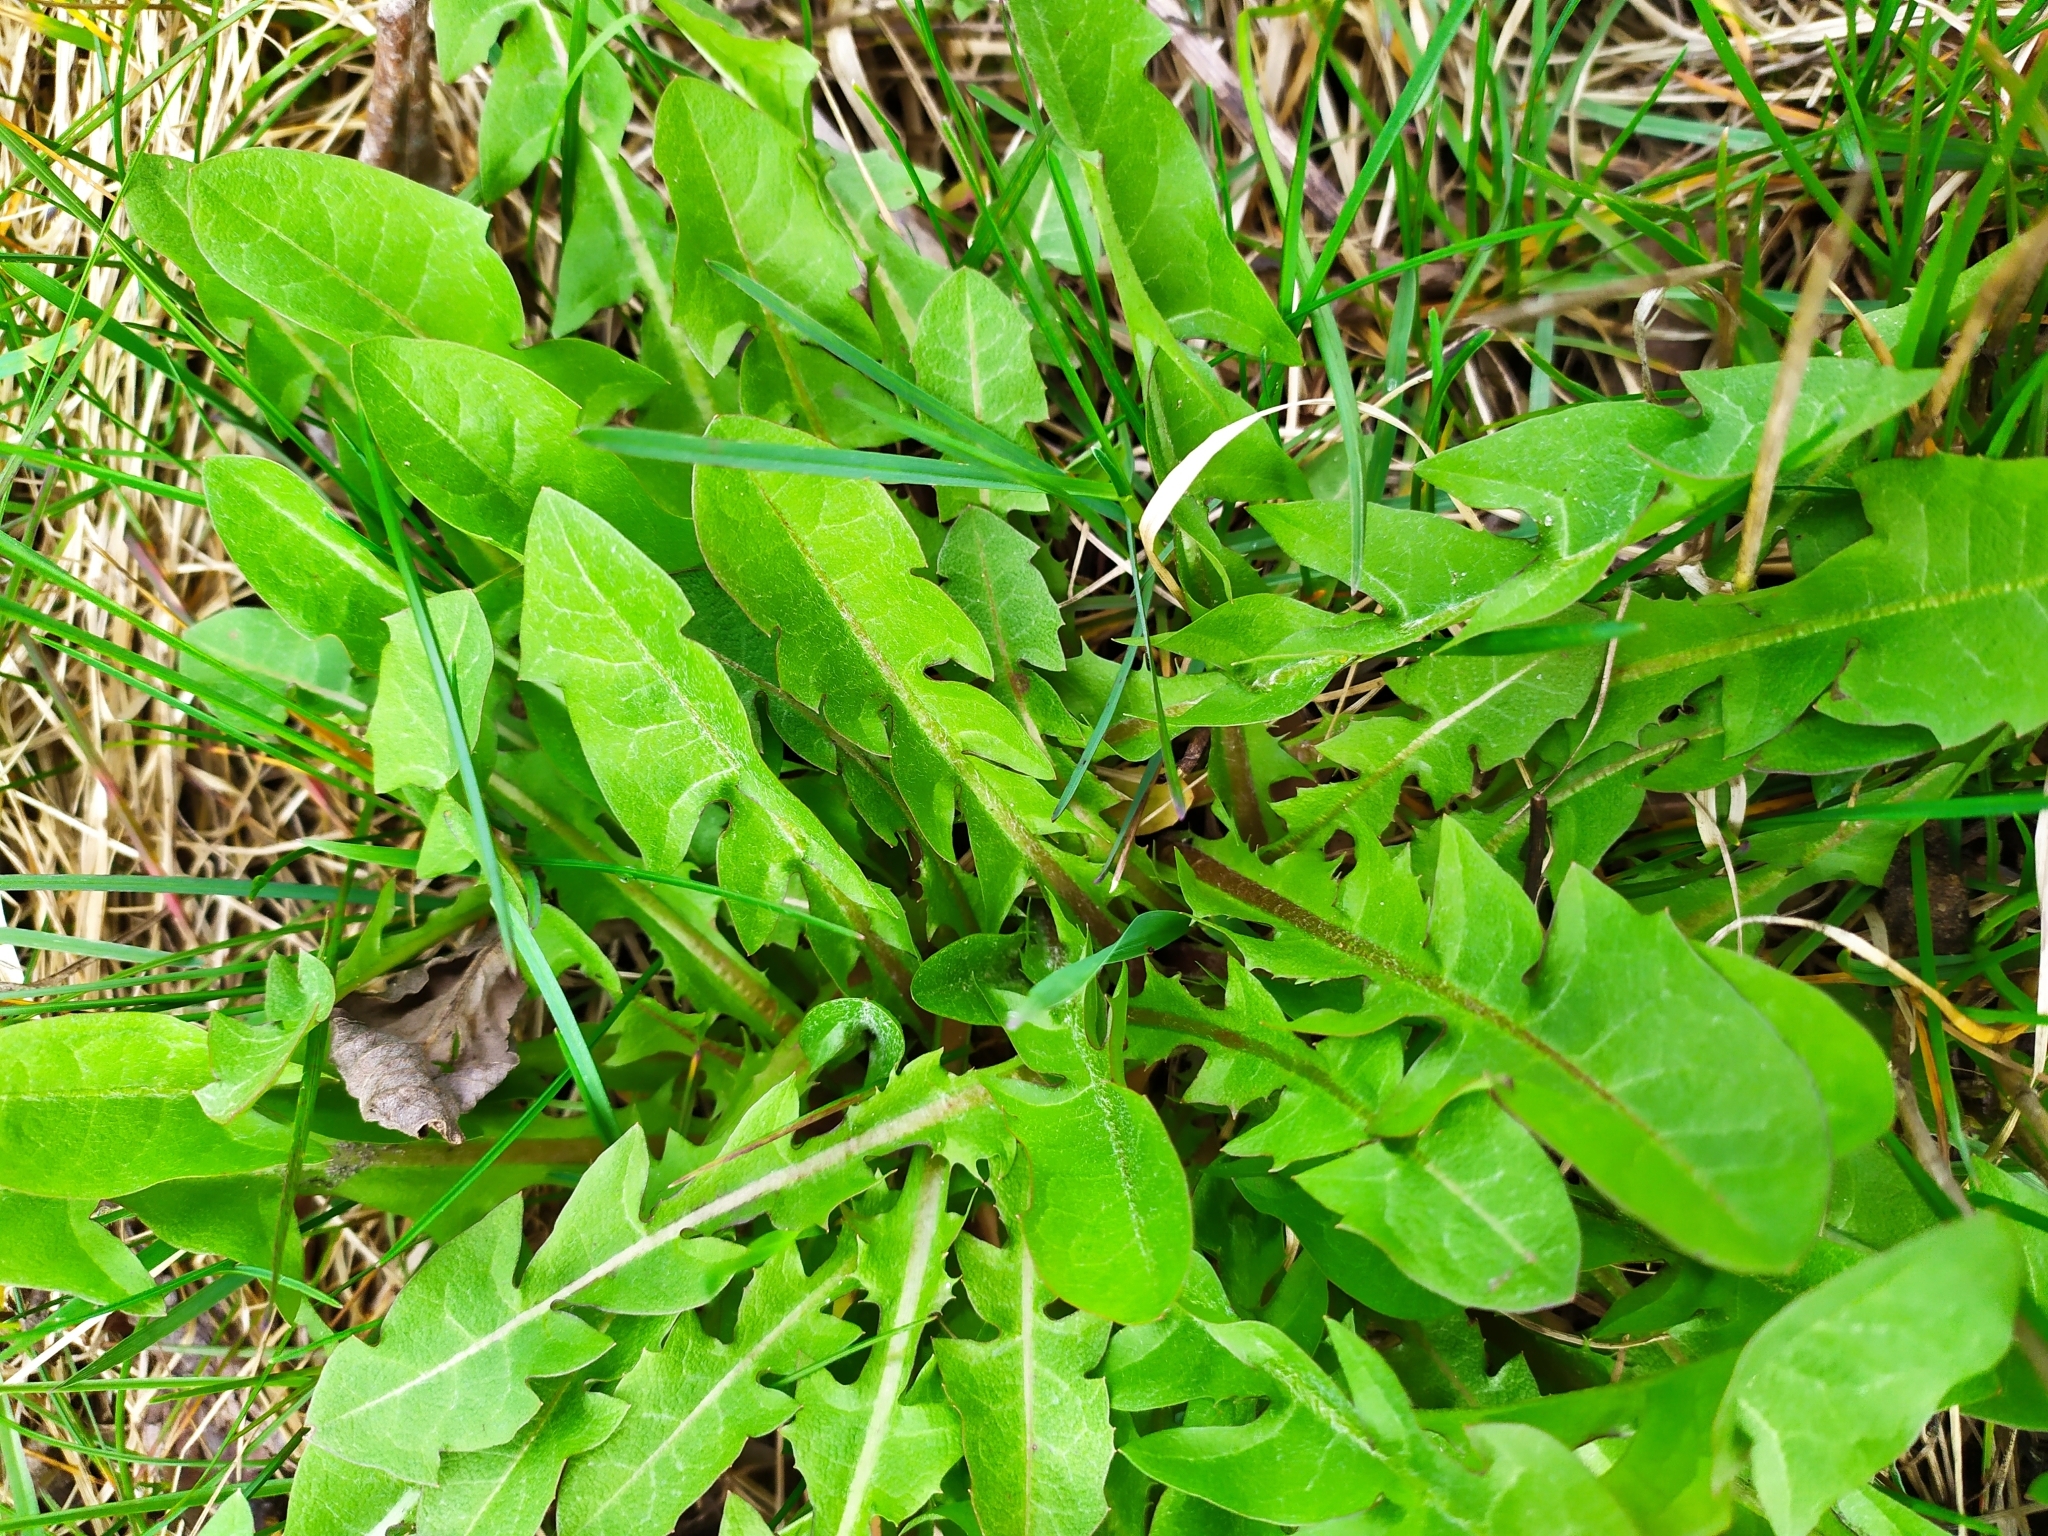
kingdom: Plantae
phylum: Tracheophyta
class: Magnoliopsida
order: Asterales
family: Asteraceae
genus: Taraxacum
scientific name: Taraxacum officinale
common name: Common dandelion
